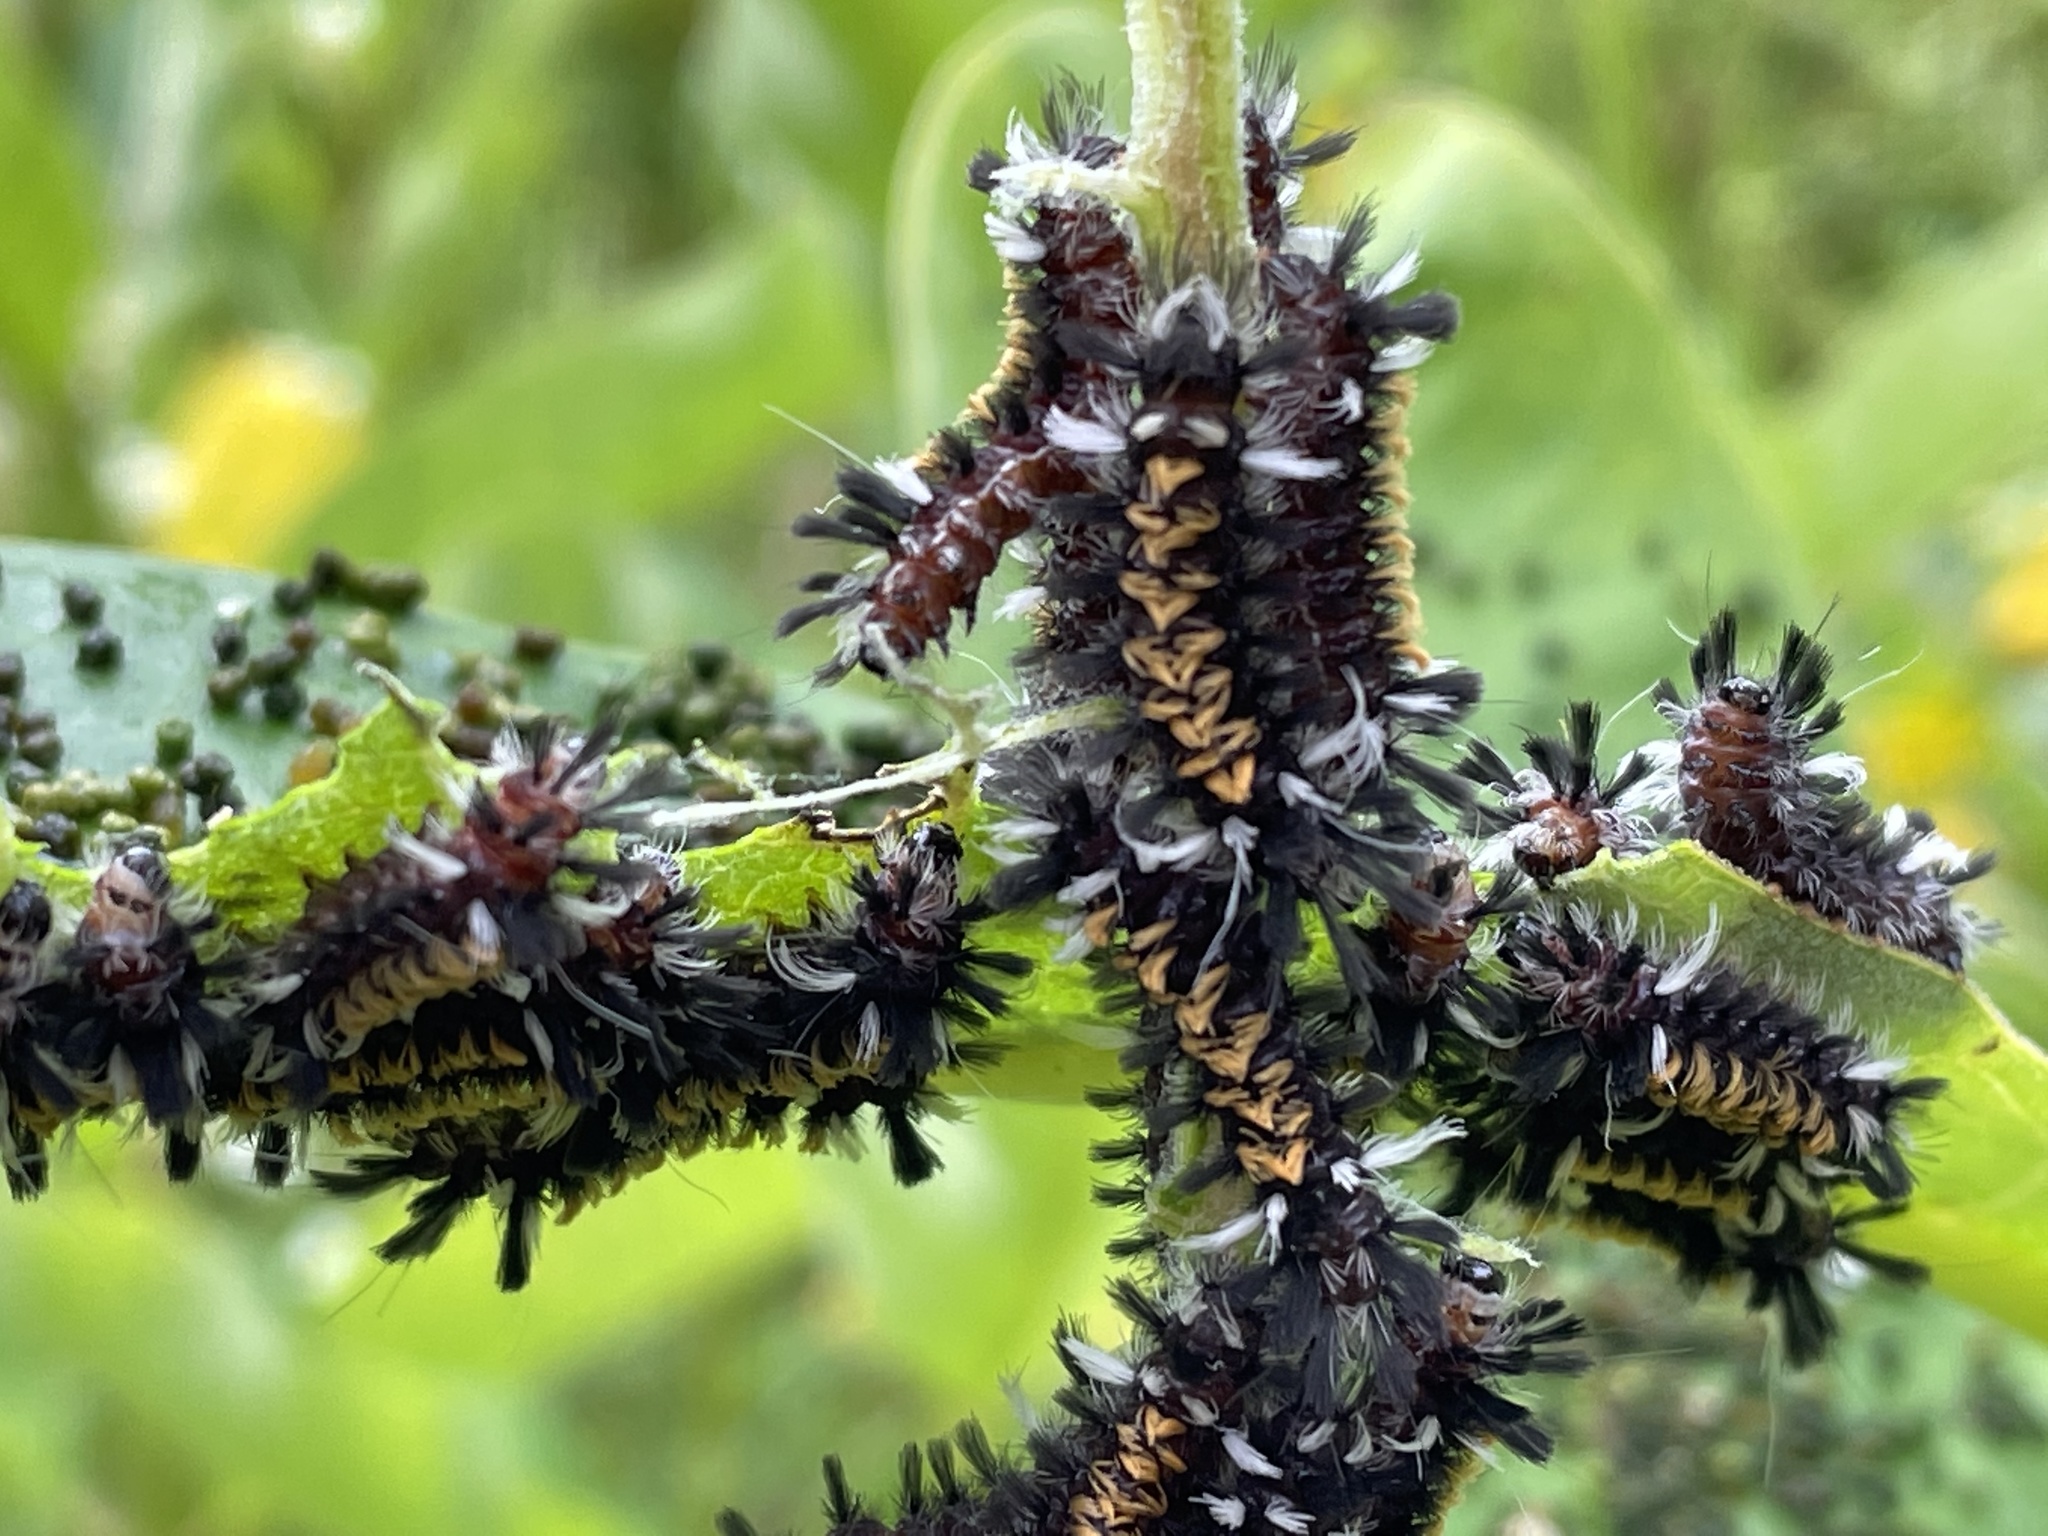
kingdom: Animalia
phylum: Arthropoda
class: Insecta
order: Lepidoptera
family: Erebidae
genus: Euchaetes
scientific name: Euchaetes egle
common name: Milkweed tussock moth
